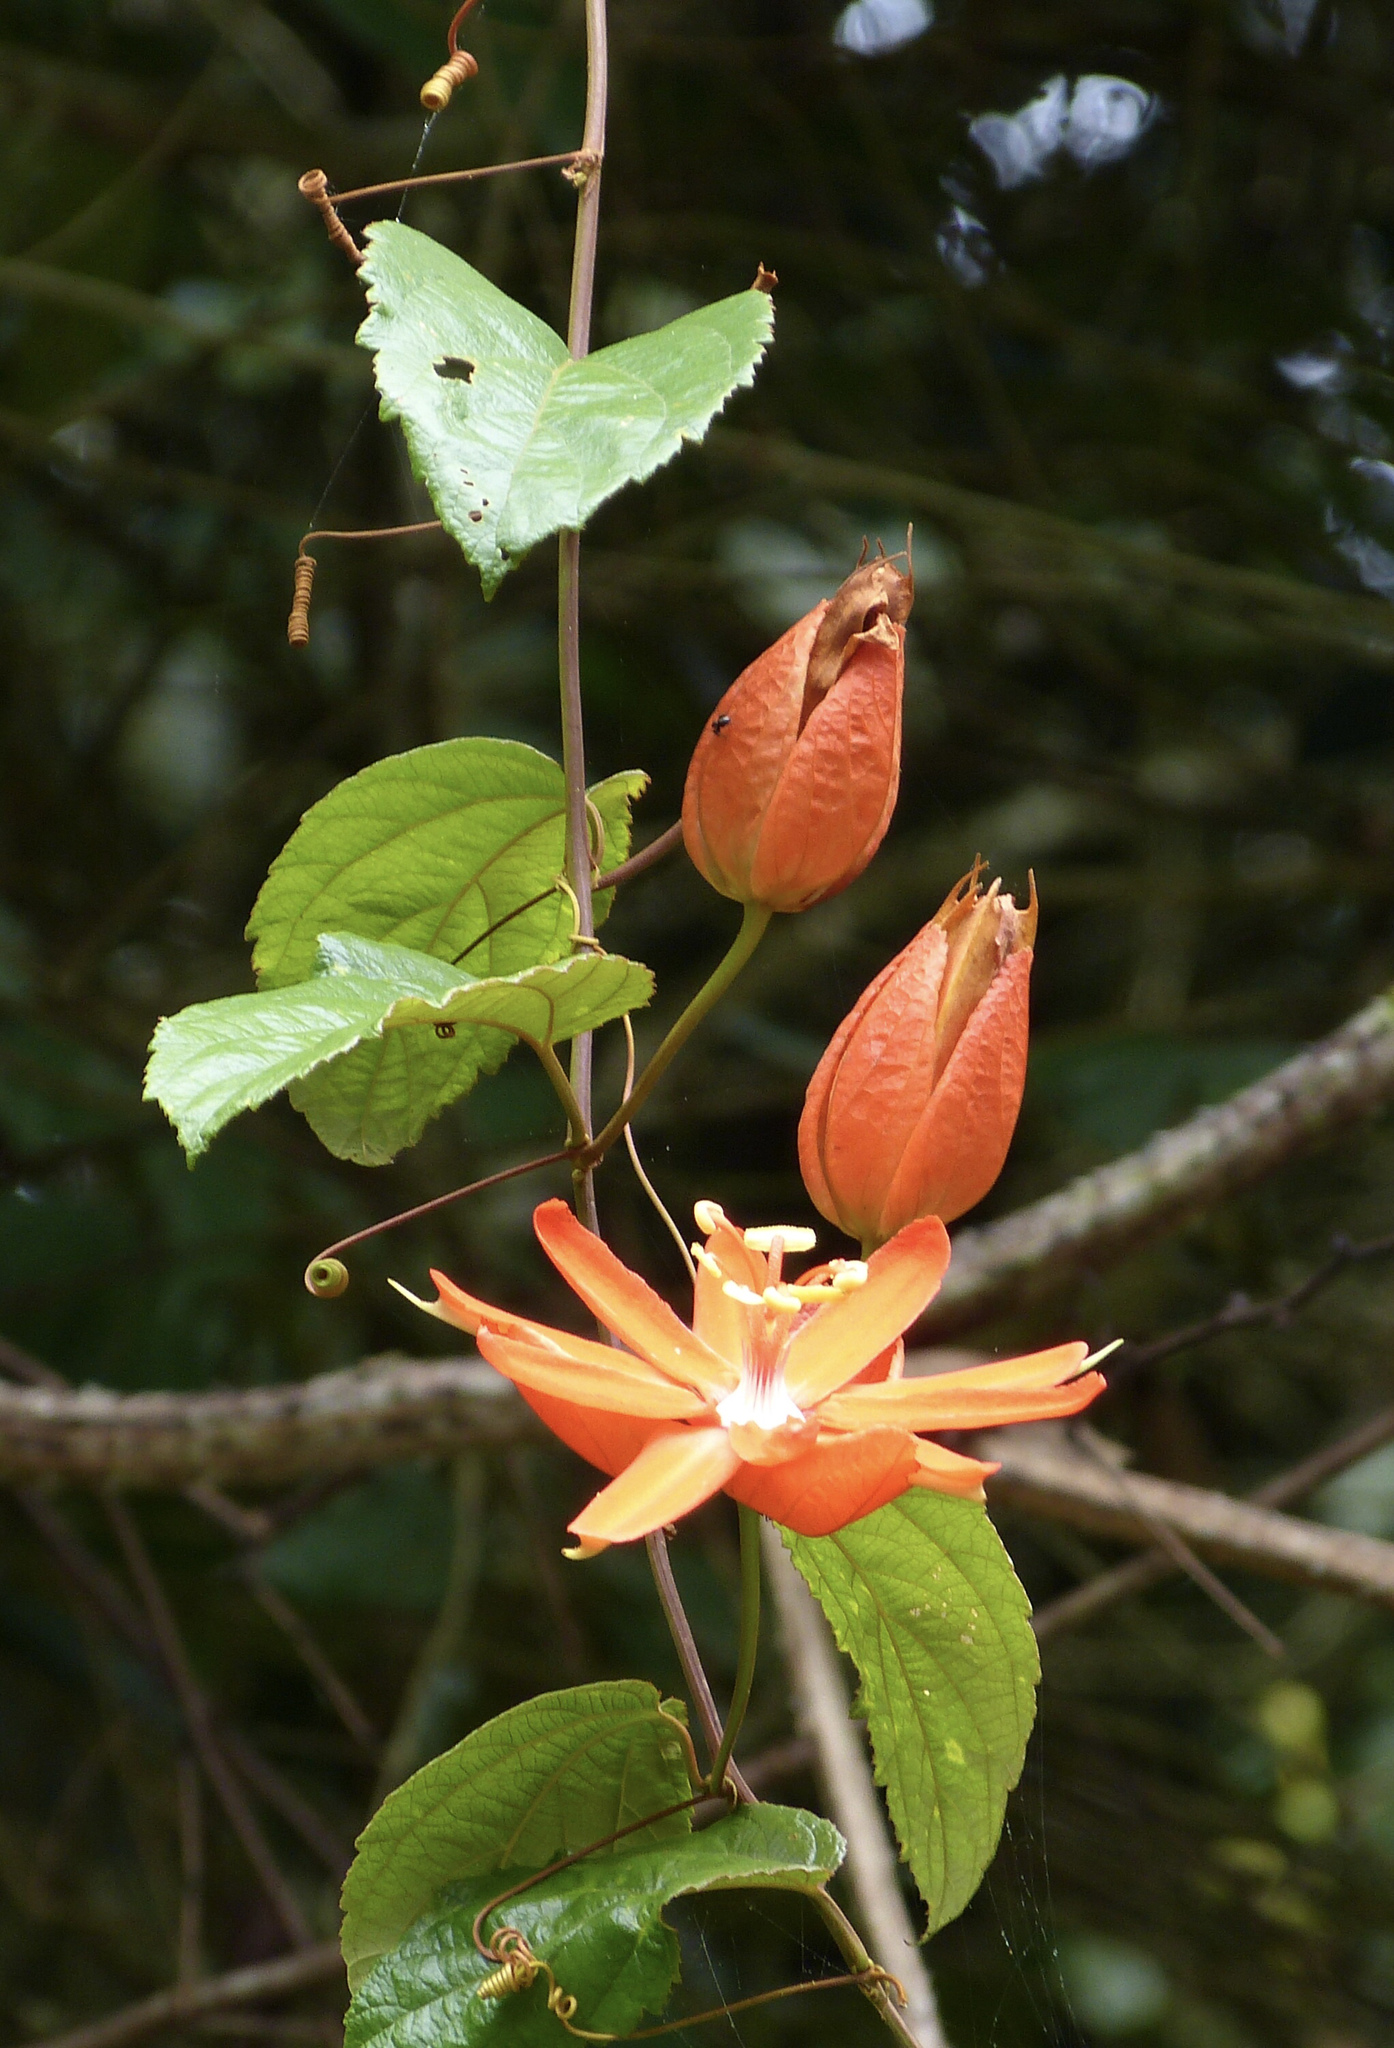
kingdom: Plantae
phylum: Tracheophyta
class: Magnoliopsida
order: Malpighiales
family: Passifloraceae
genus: Passiflora
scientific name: Passiflora coccinea
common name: Scarlet passionflower
